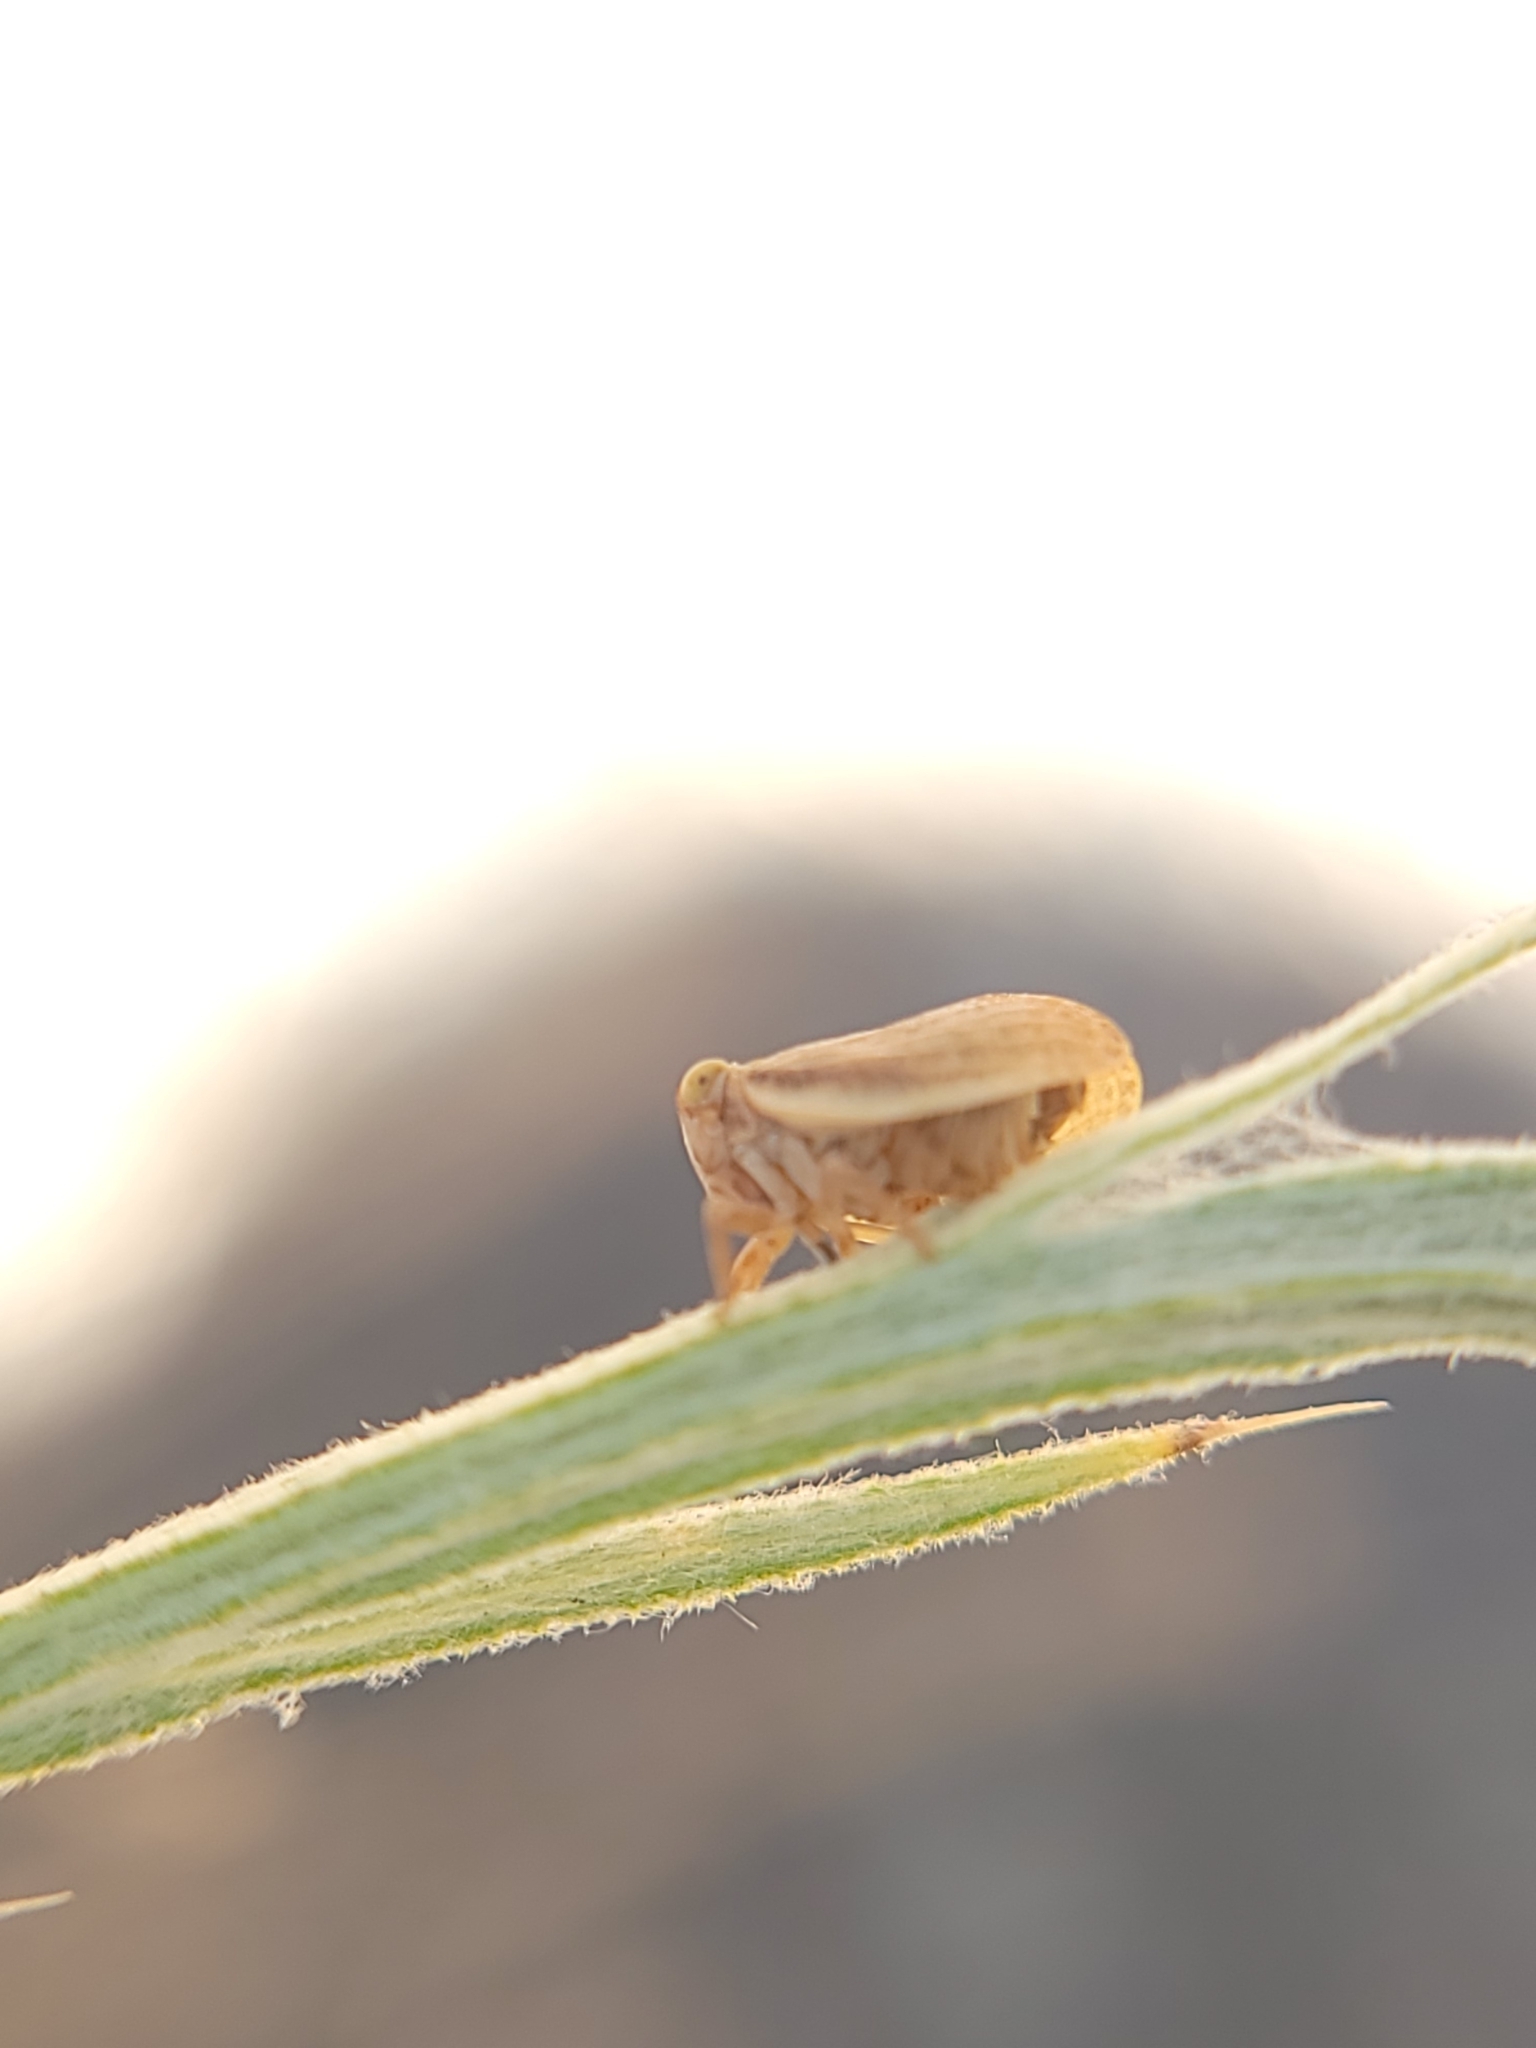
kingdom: Animalia
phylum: Arthropoda
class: Insecta
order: Hemiptera
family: Issidae
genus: Agalmatium
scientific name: Agalmatium bilobum
